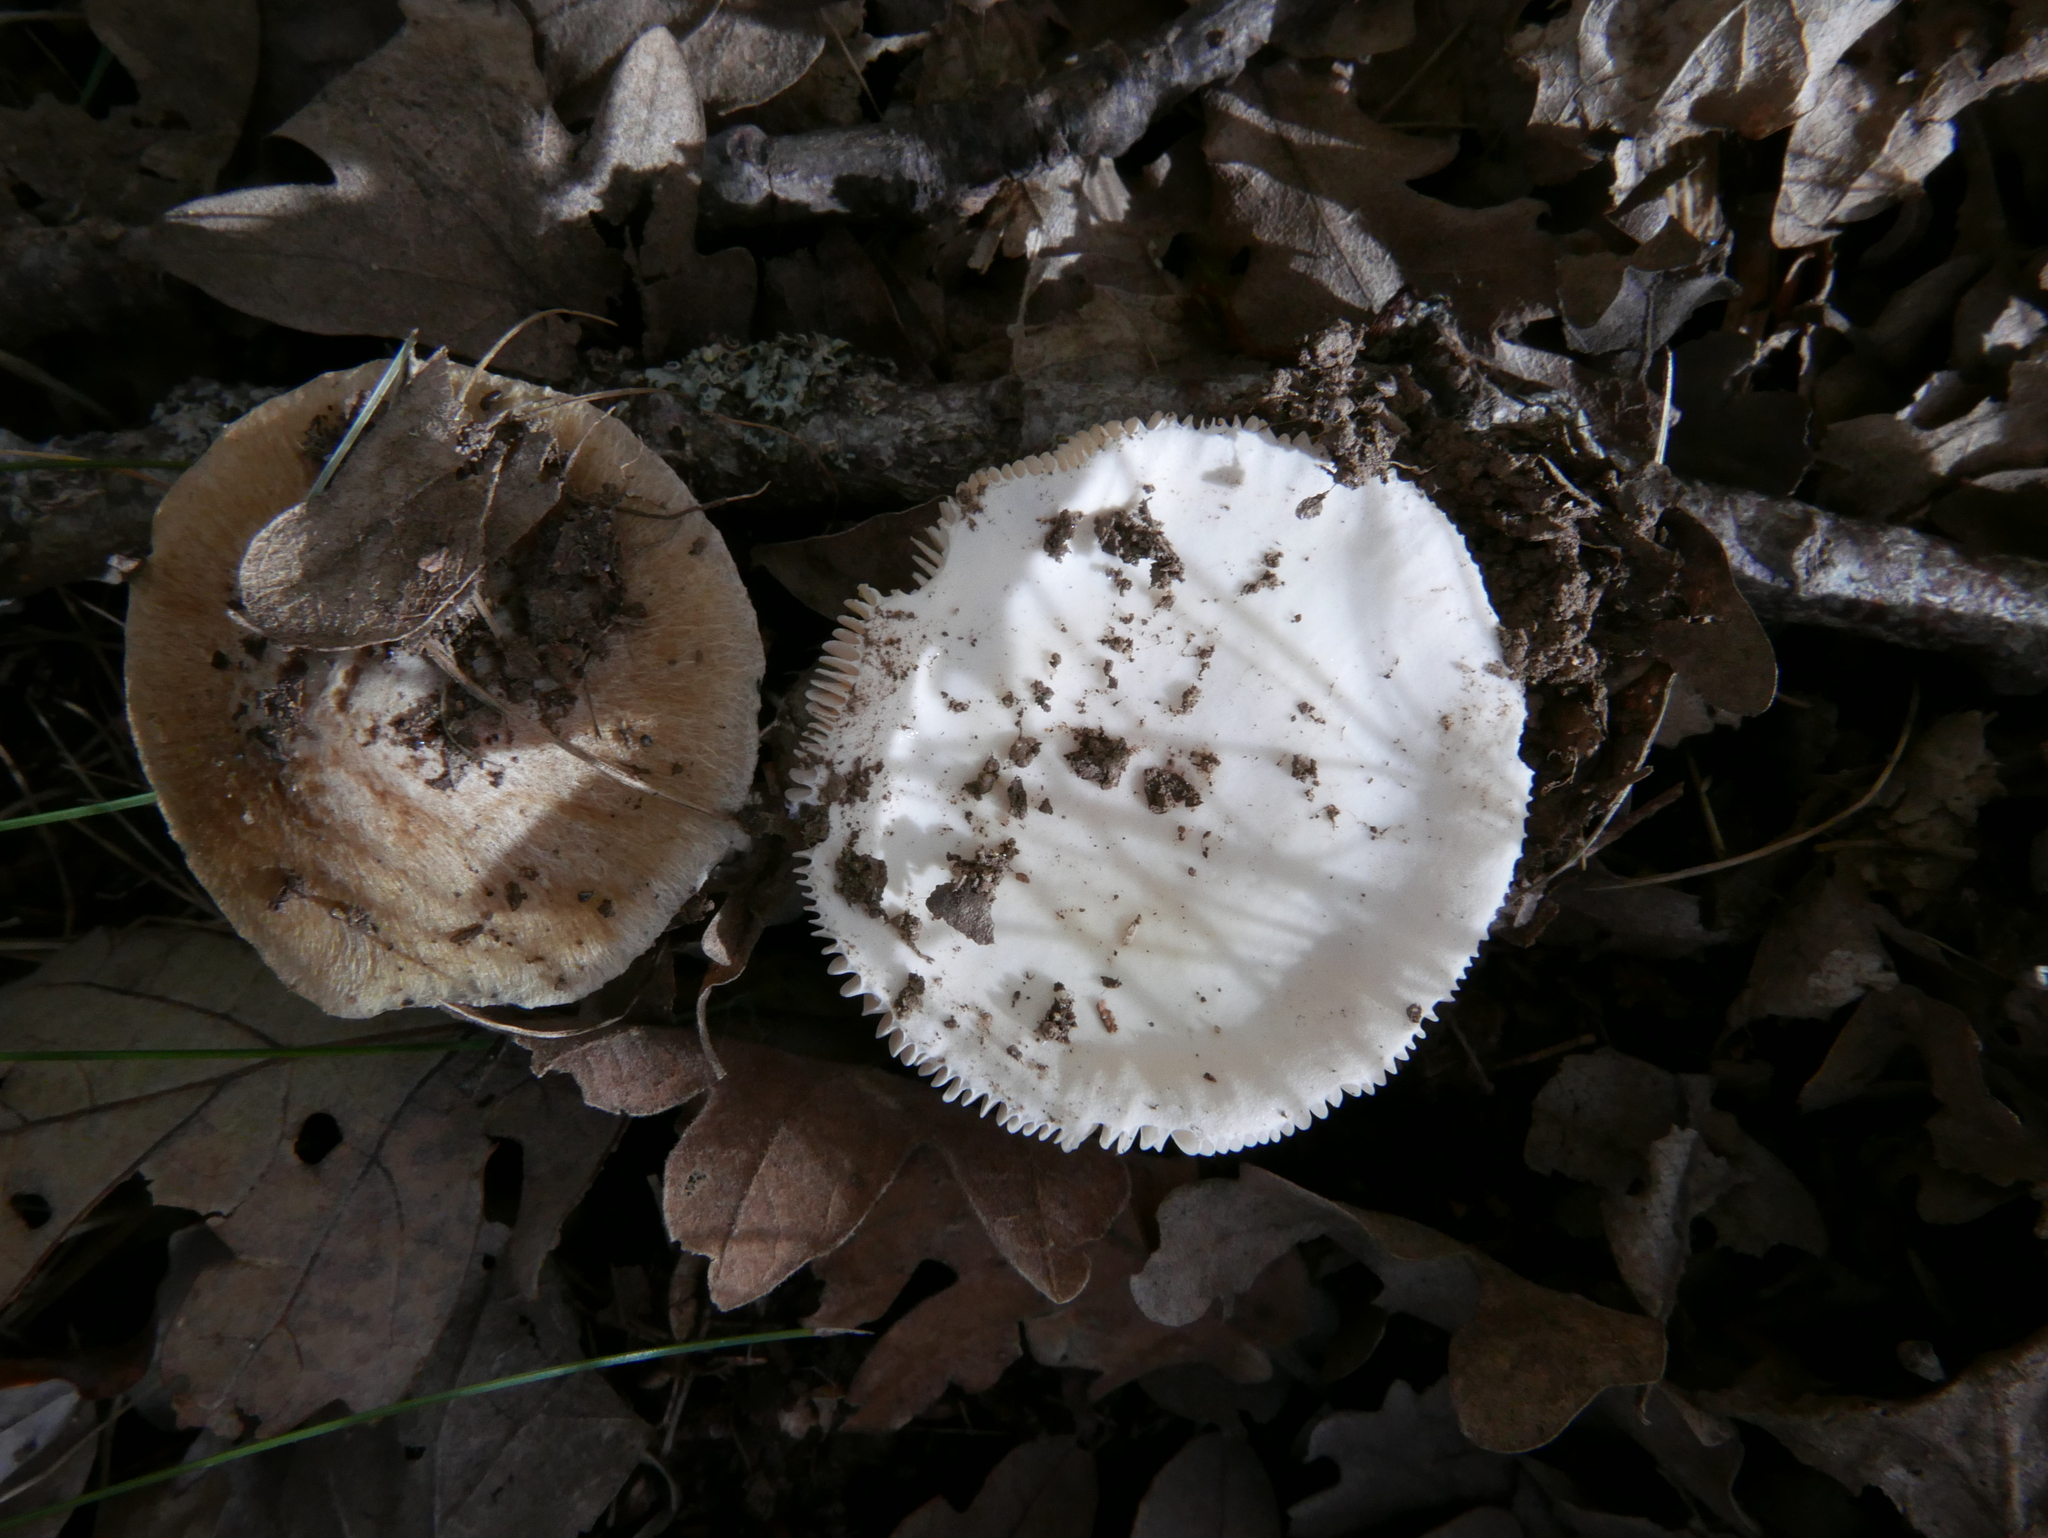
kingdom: Fungi
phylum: Basidiomycota
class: Agaricomycetes
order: Agaricales
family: Amanitaceae
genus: Amanita
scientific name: Amanita vaginata
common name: Grisette
